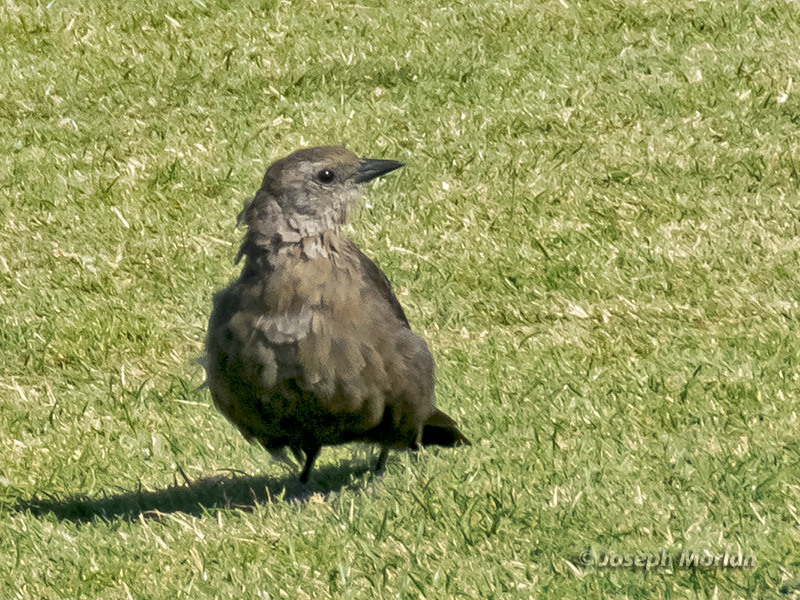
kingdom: Animalia
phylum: Chordata
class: Aves
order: Passeriformes
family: Icteridae
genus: Euphagus
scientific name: Euphagus cyanocephalus
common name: Brewer's blackbird
